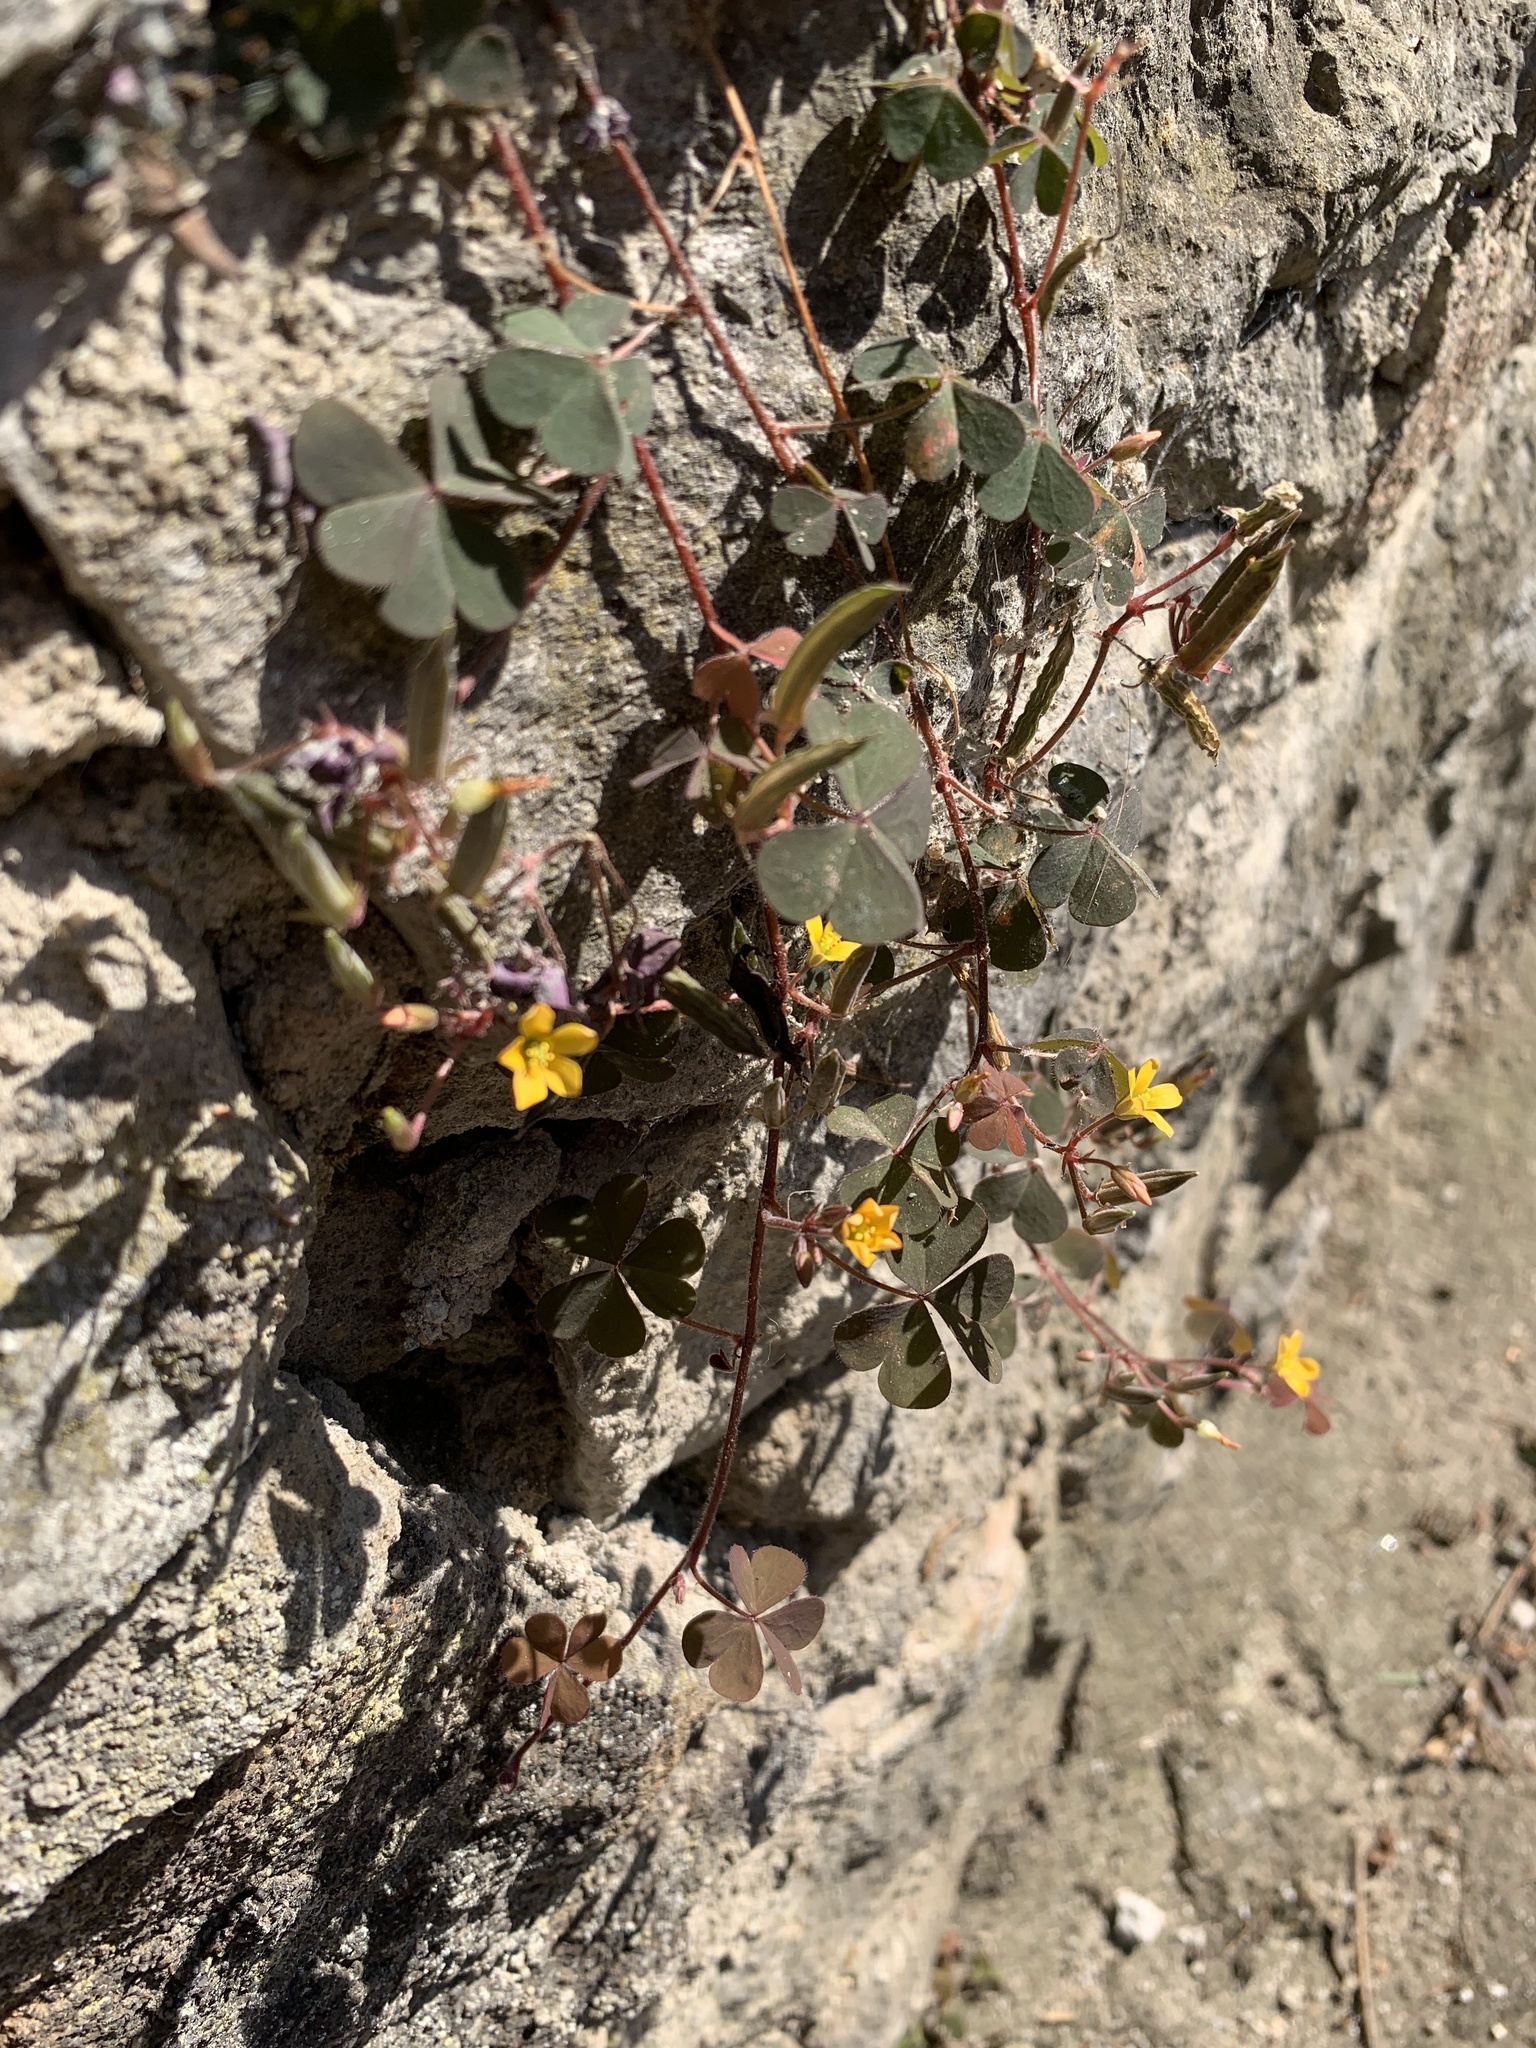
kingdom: Plantae
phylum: Tracheophyta
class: Magnoliopsida
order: Oxalidales
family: Oxalidaceae
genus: Oxalis
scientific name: Oxalis corniculata
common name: Procumbent yellow-sorrel
